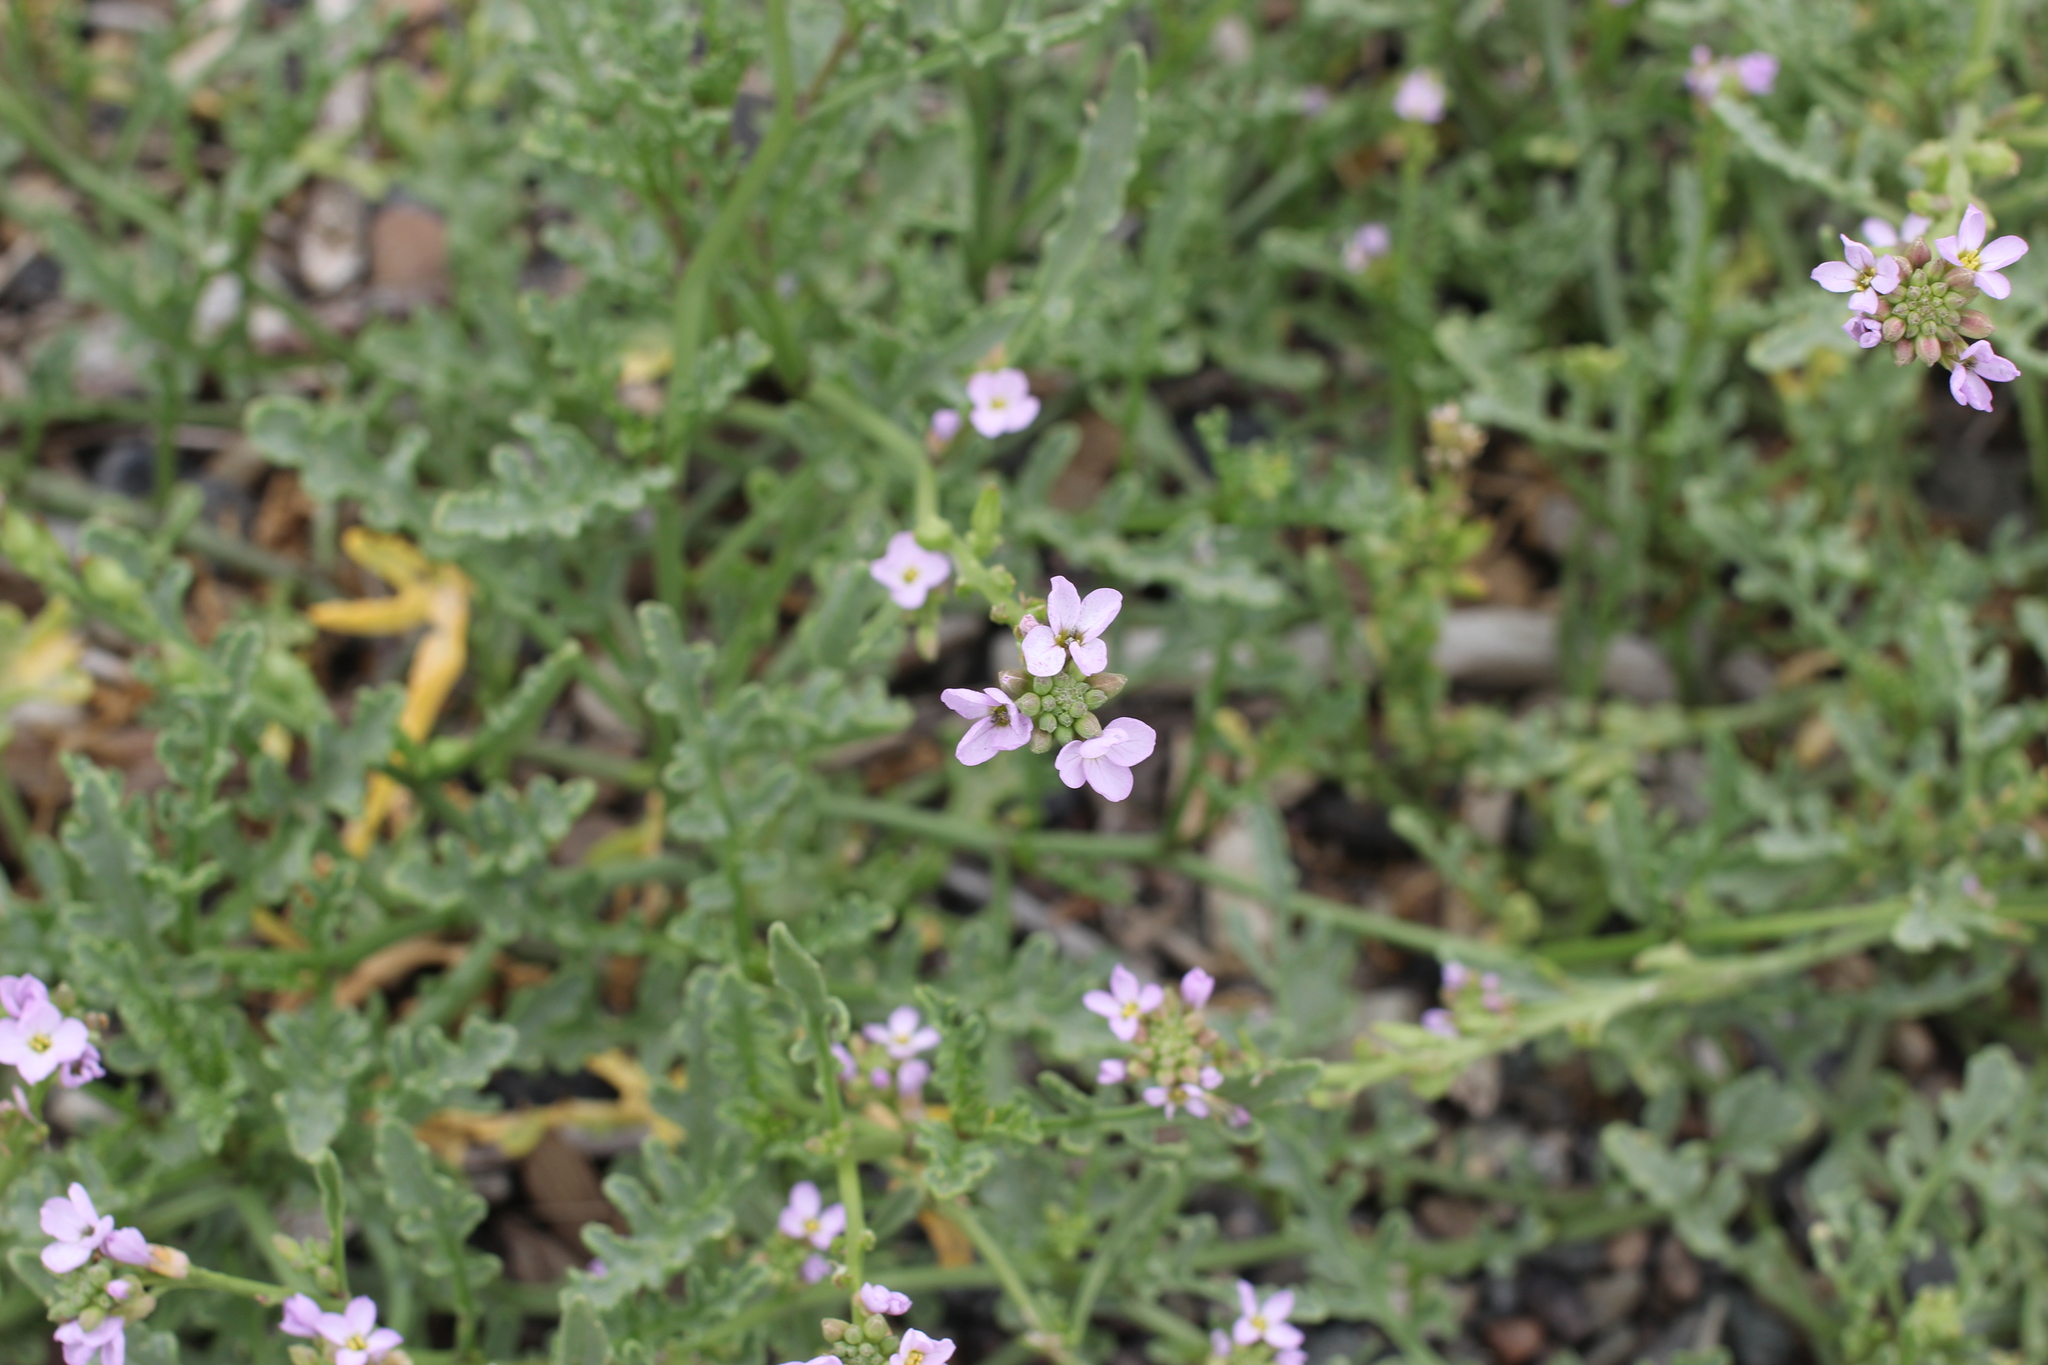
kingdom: Plantae
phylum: Tracheophyta
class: Magnoliopsida
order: Brassicales
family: Brassicaceae
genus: Cakile
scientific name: Cakile maritima
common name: Sea rocket
